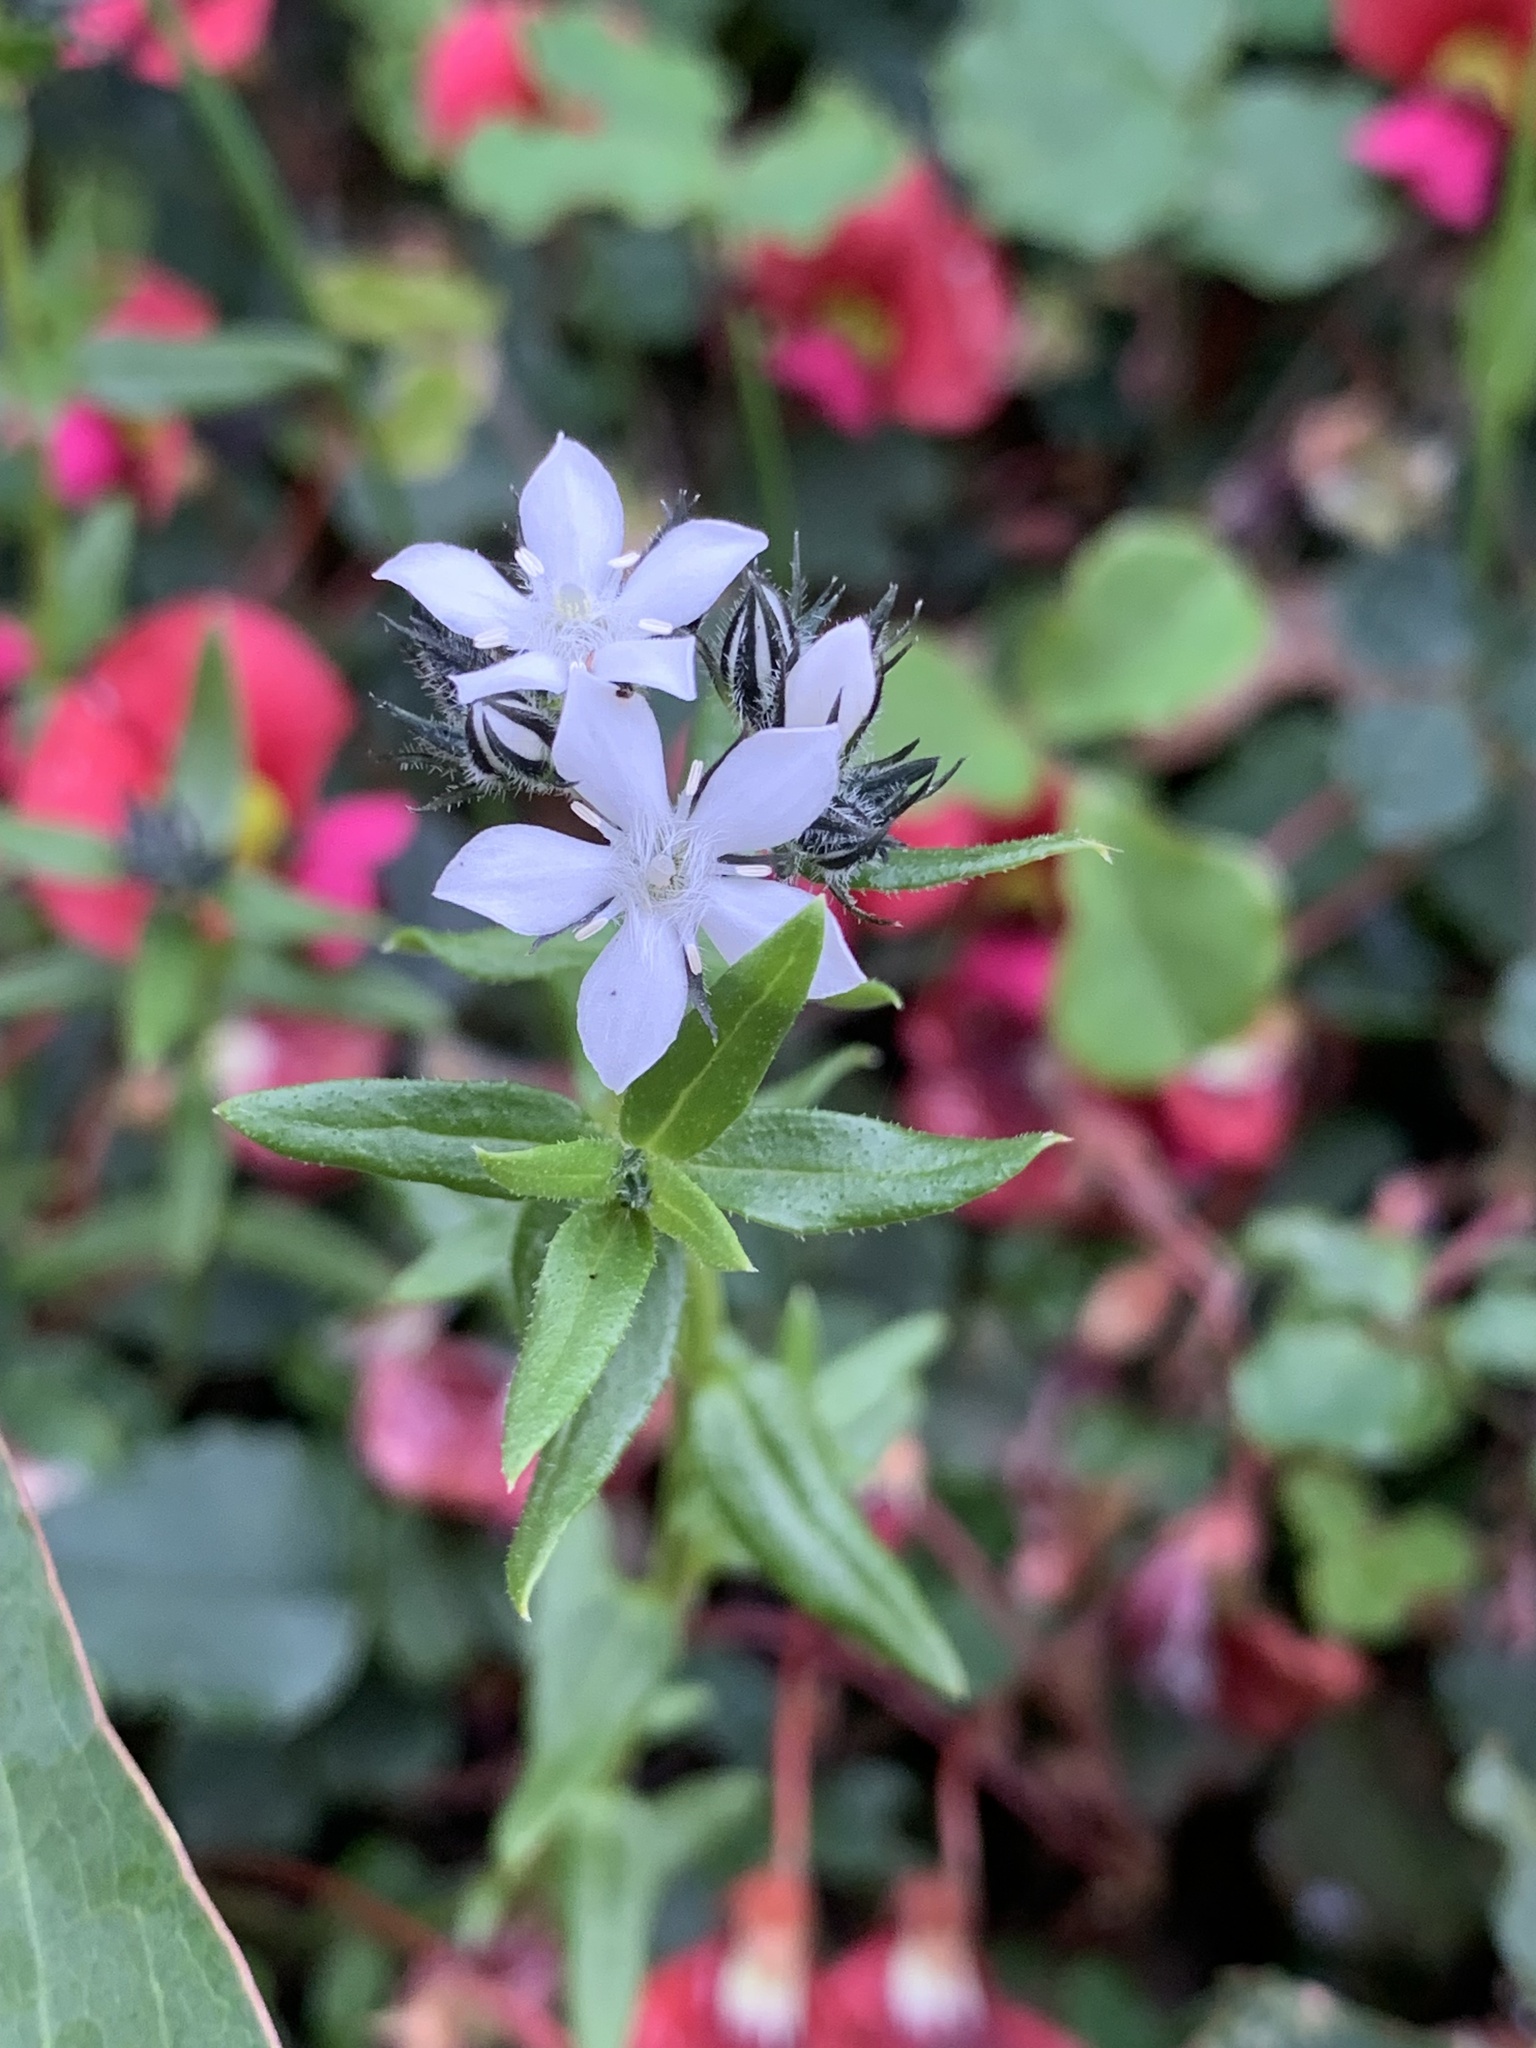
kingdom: Plantae
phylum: Tracheophyta
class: Magnoliopsida
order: Gentianales
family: Loganiaceae
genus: Orianthera
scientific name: Orianthera serpyllifolia
